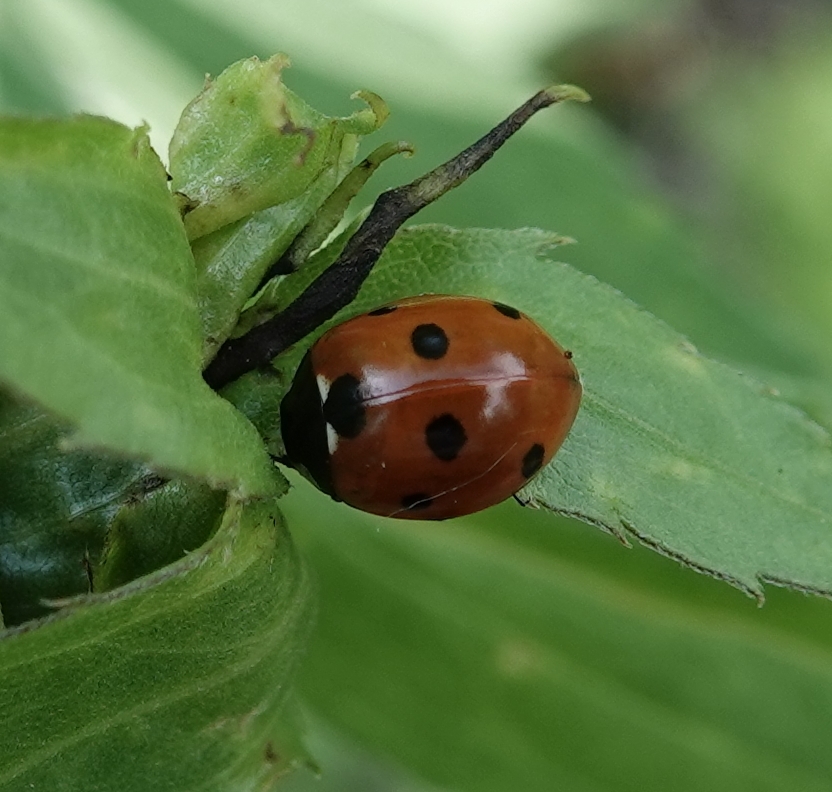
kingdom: Animalia
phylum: Arthropoda
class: Insecta
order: Coleoptera
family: Coccinellidae
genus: Coccinella
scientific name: Coccinella septempunctata
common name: Sevenspotted lady beetle
